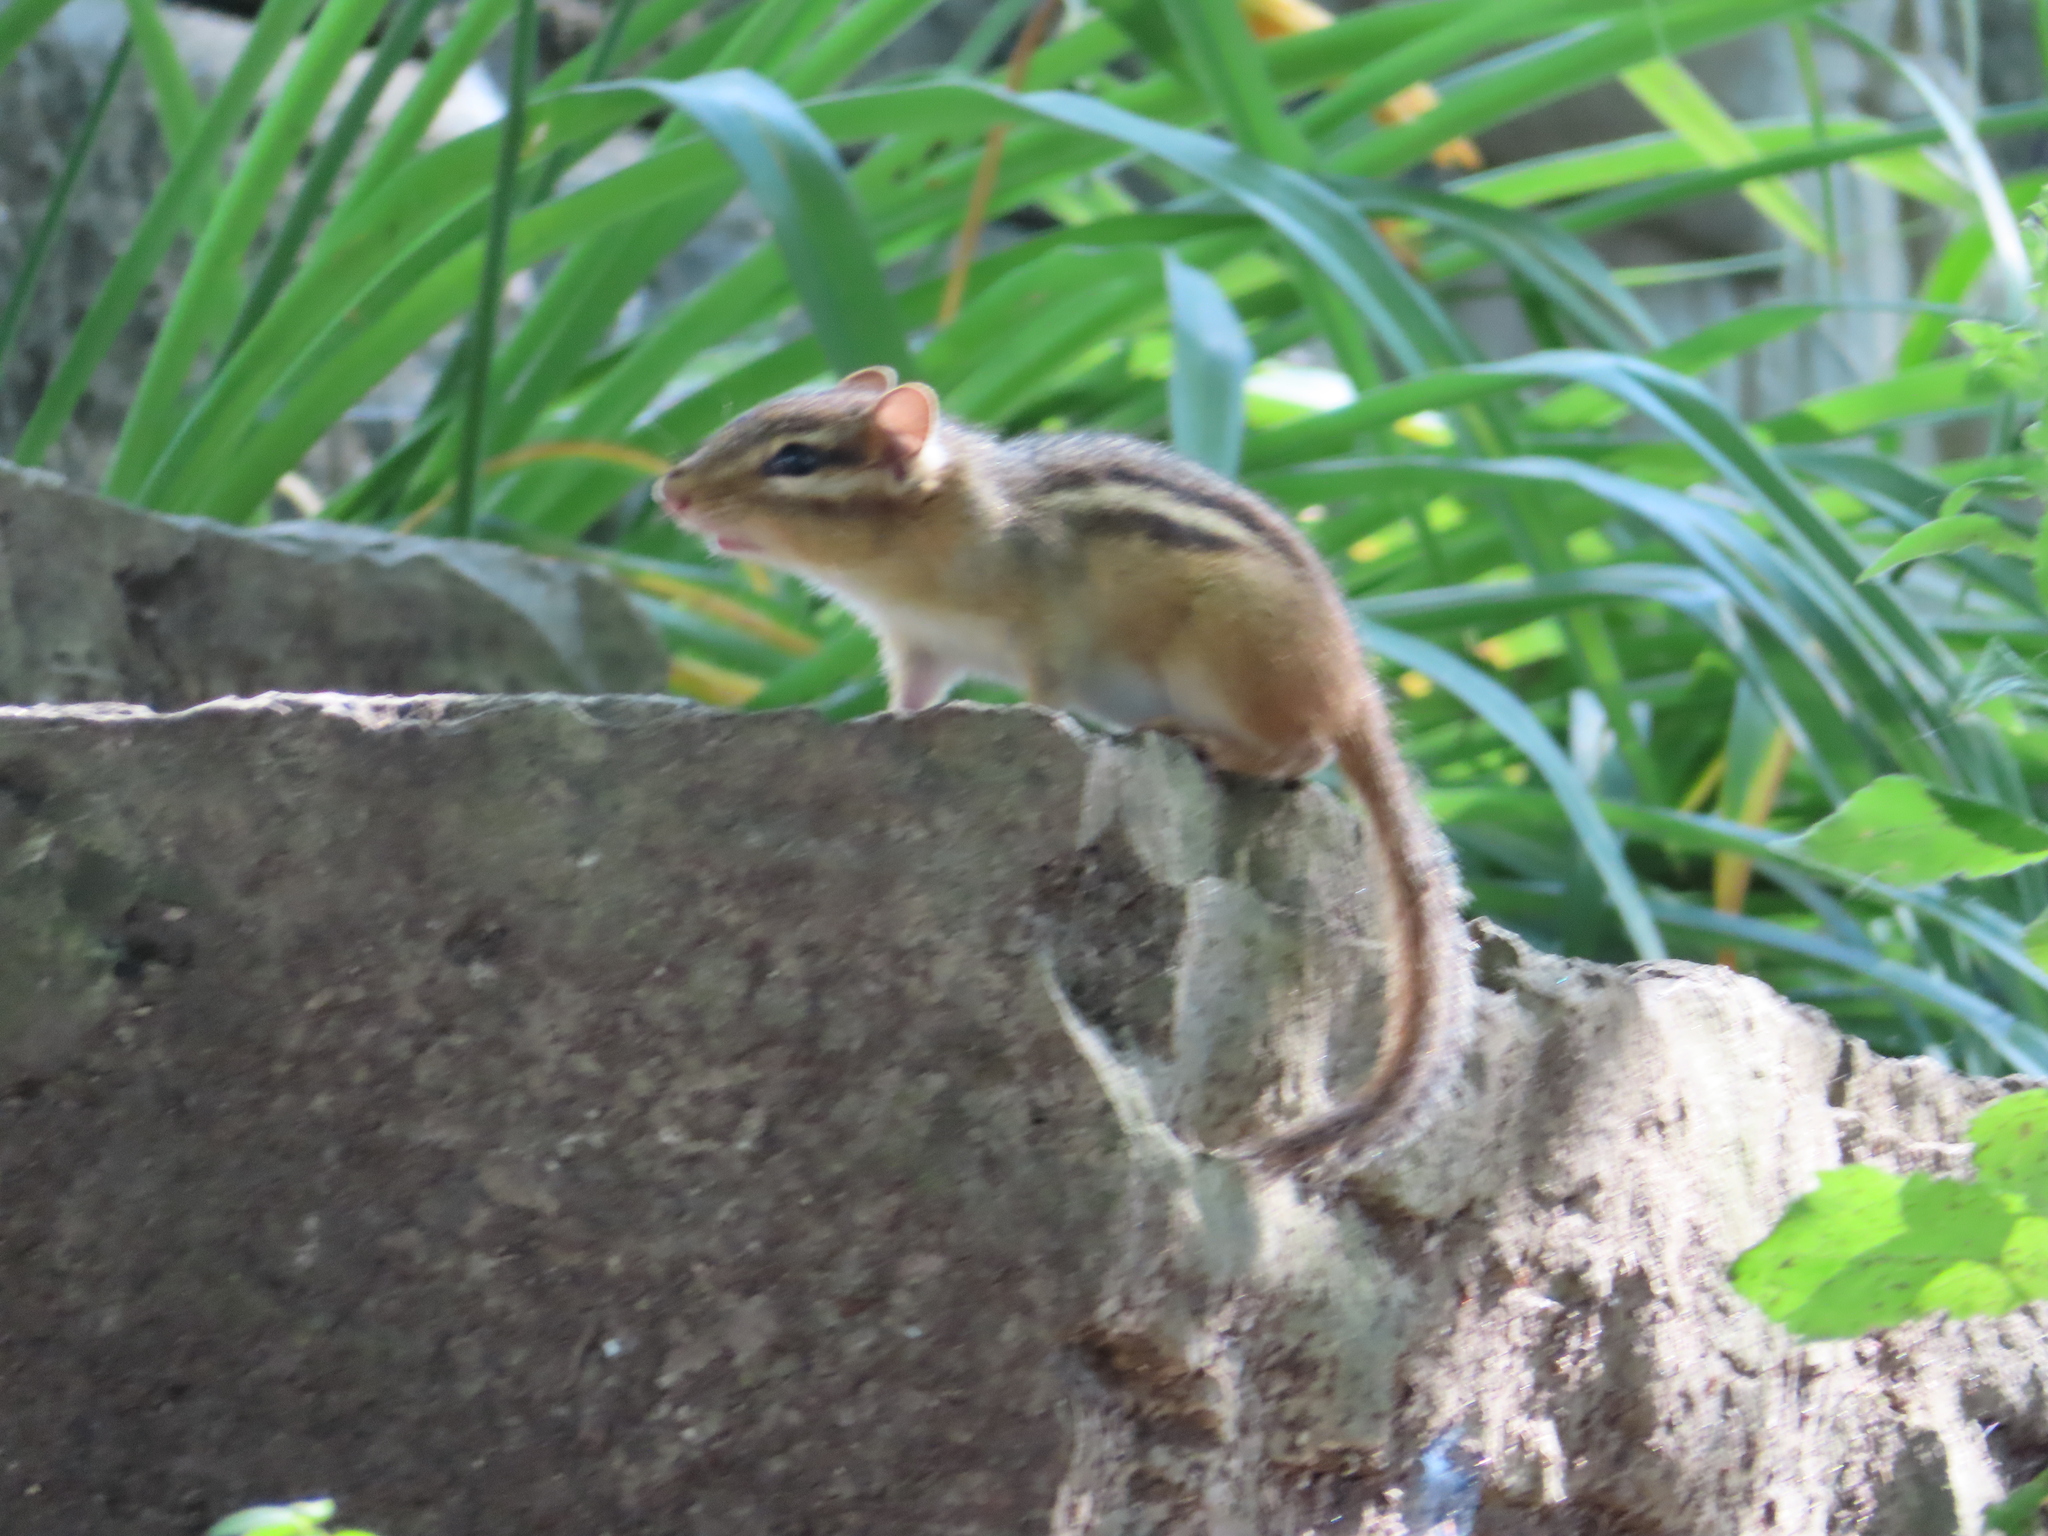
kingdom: Animalia
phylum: Chordata
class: Mammalia
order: Rodentia
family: Sciuridae
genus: Tamias
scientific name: Tamias striatus
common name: Eastern chipmunk
